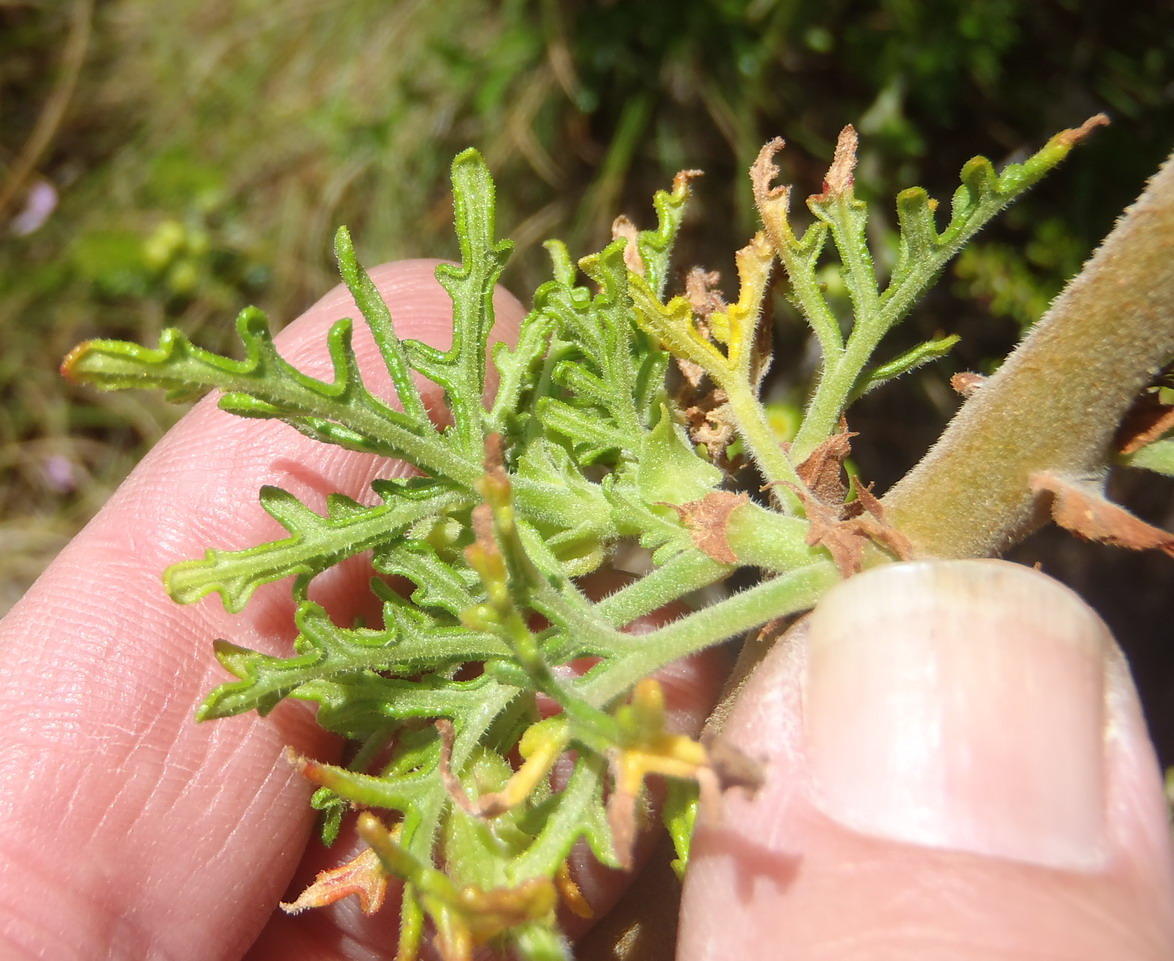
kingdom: Plantae
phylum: Tracheophyta
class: Magnoliopsida
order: Geraniales
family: Geraniaceae
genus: Pelargonium
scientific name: Pelargonium radens
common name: Rasp-leaf pelargonium
